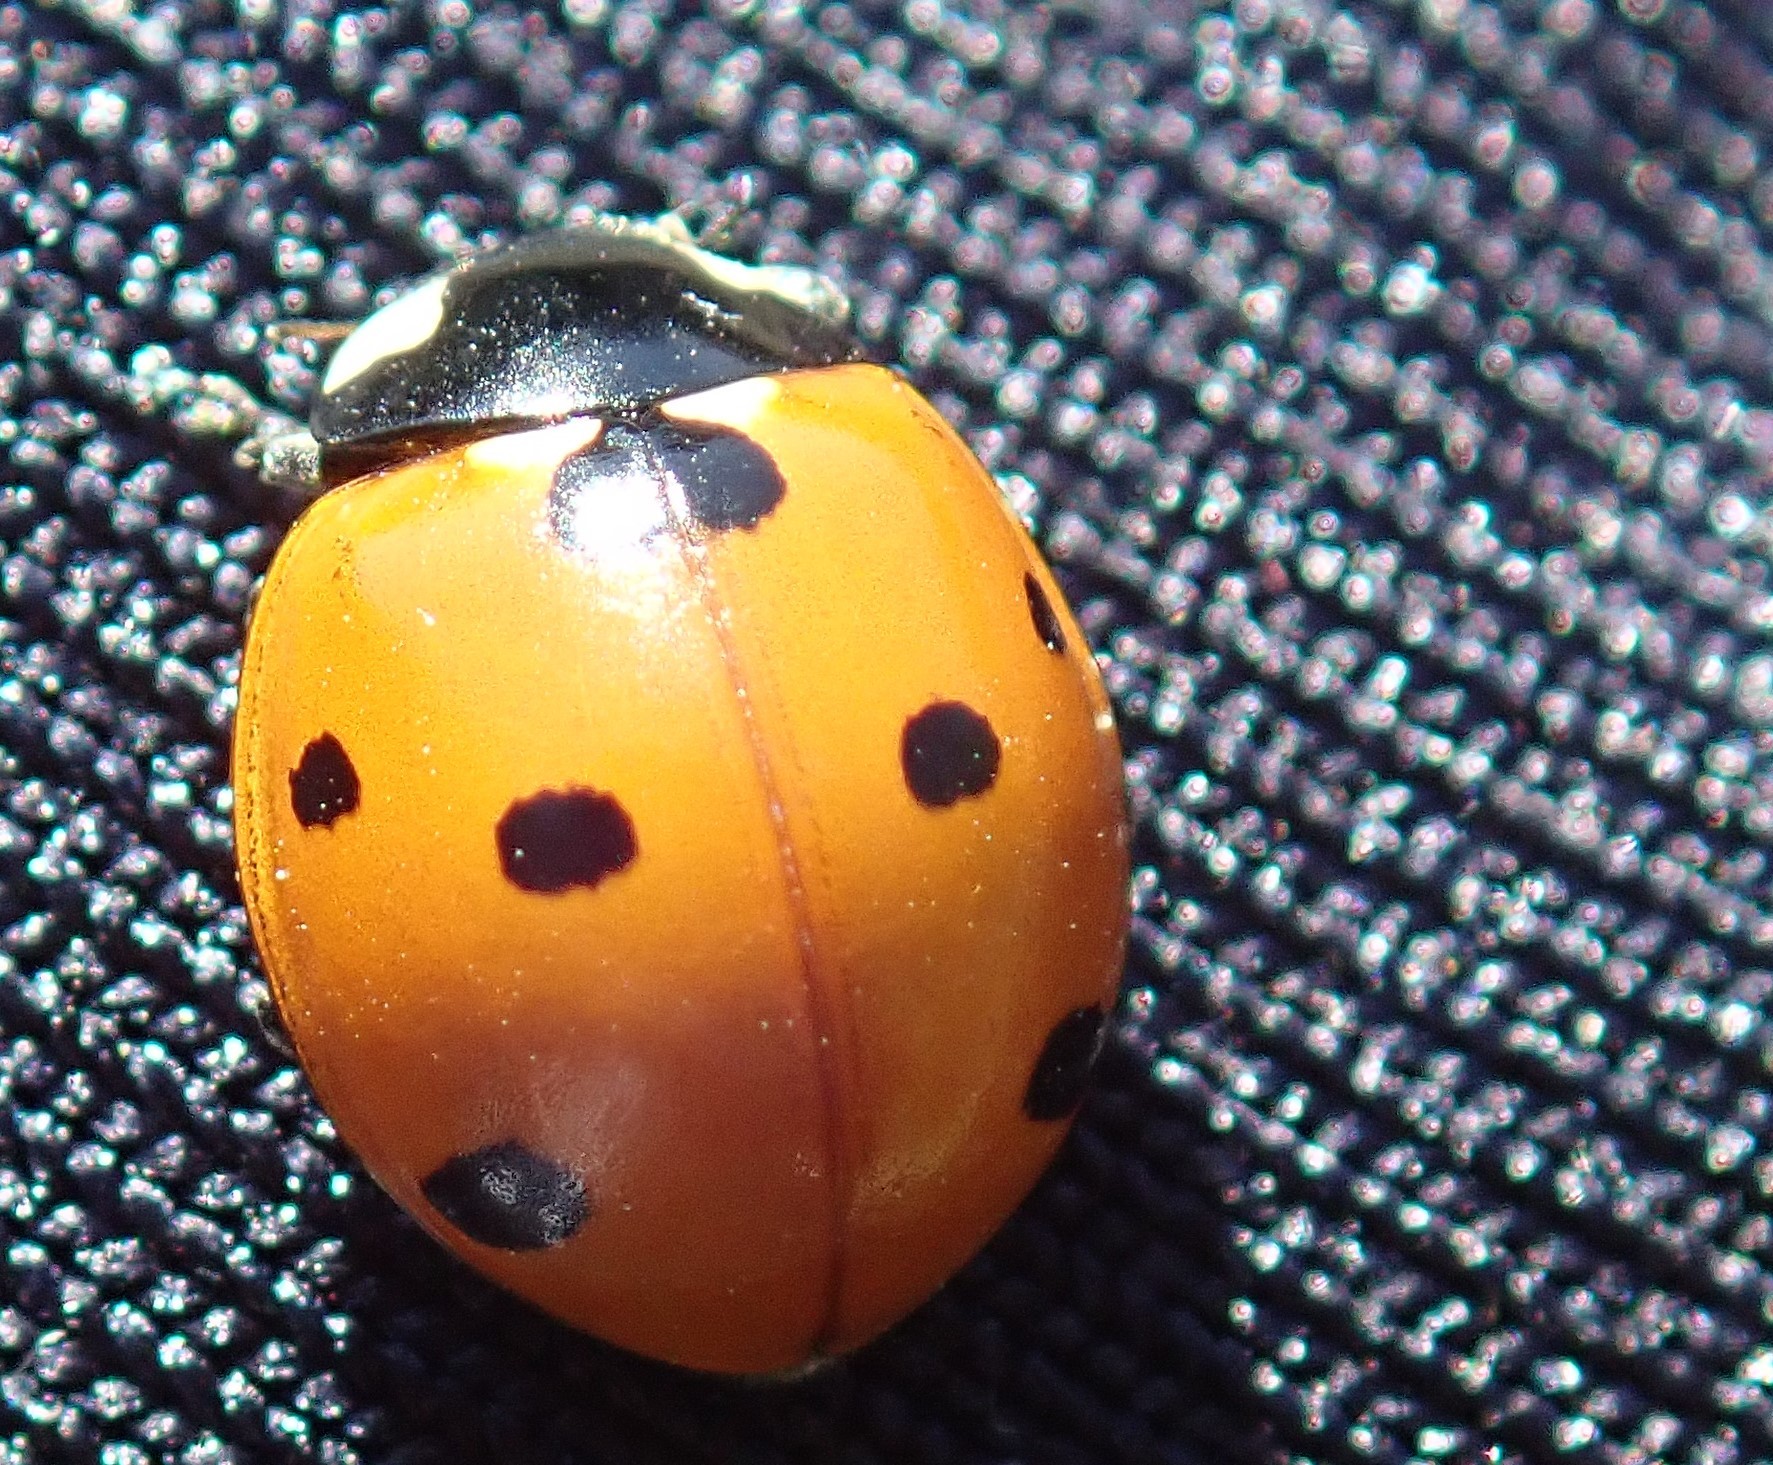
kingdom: Animalia
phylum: Arthropoda
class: Insecta
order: Coleoptera
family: Coccinellidae
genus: Coccinella
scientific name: Coccinella septempunctata
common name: Sevenspotted lady beetle
